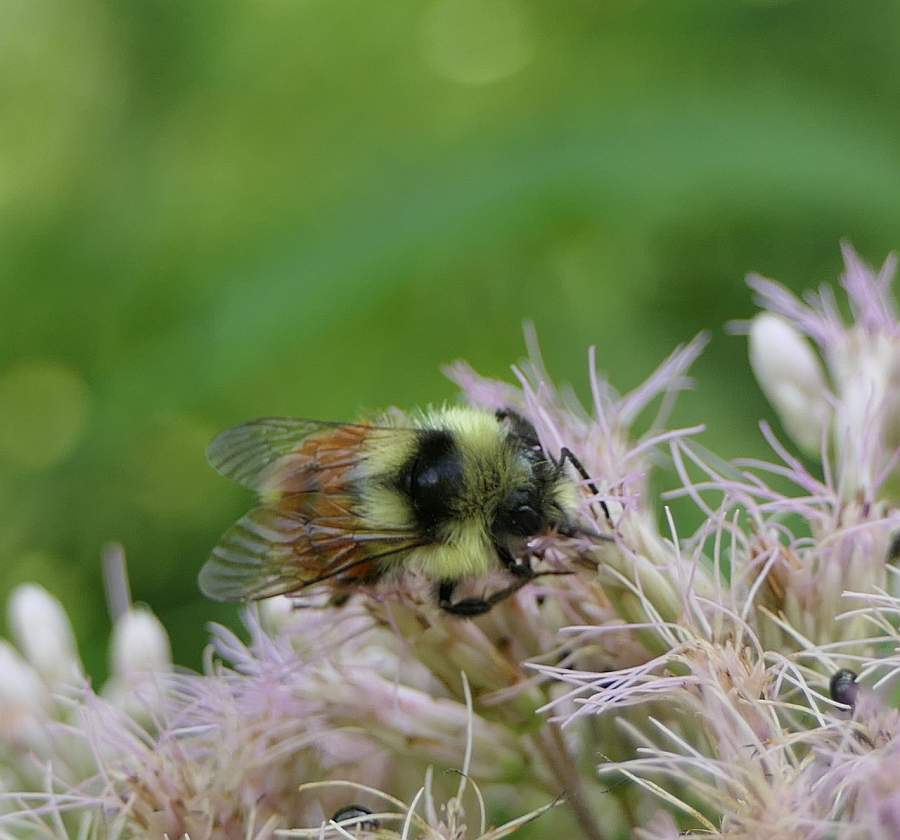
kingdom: Animalia
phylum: Arthropoda
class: Insecta
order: Hymenoptera
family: Apidae
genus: Bombus
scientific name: Bombus ternarius
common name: Tri-colored bumble bee
